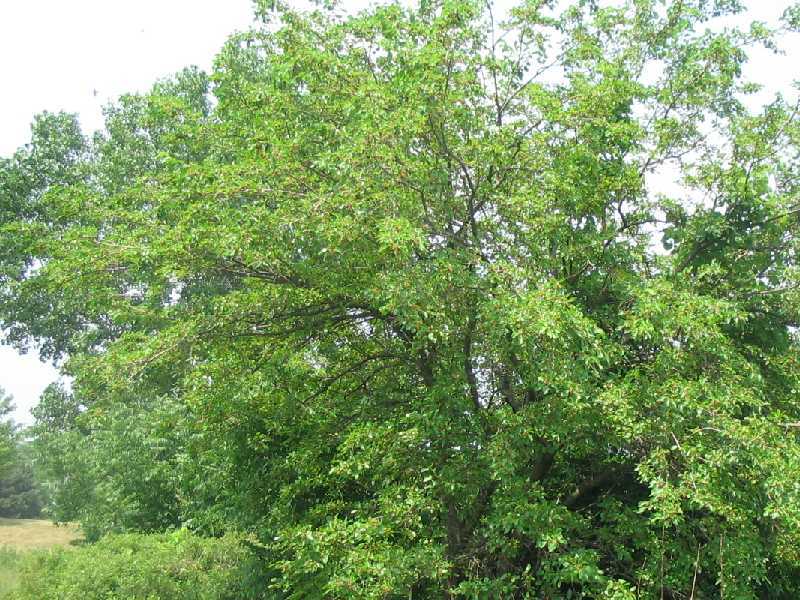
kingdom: Plantae
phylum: Tracheophyta
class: Magnoliopsida
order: Rosales
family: Moraceae
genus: Morus
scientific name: Morus alba
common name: White mulberry
